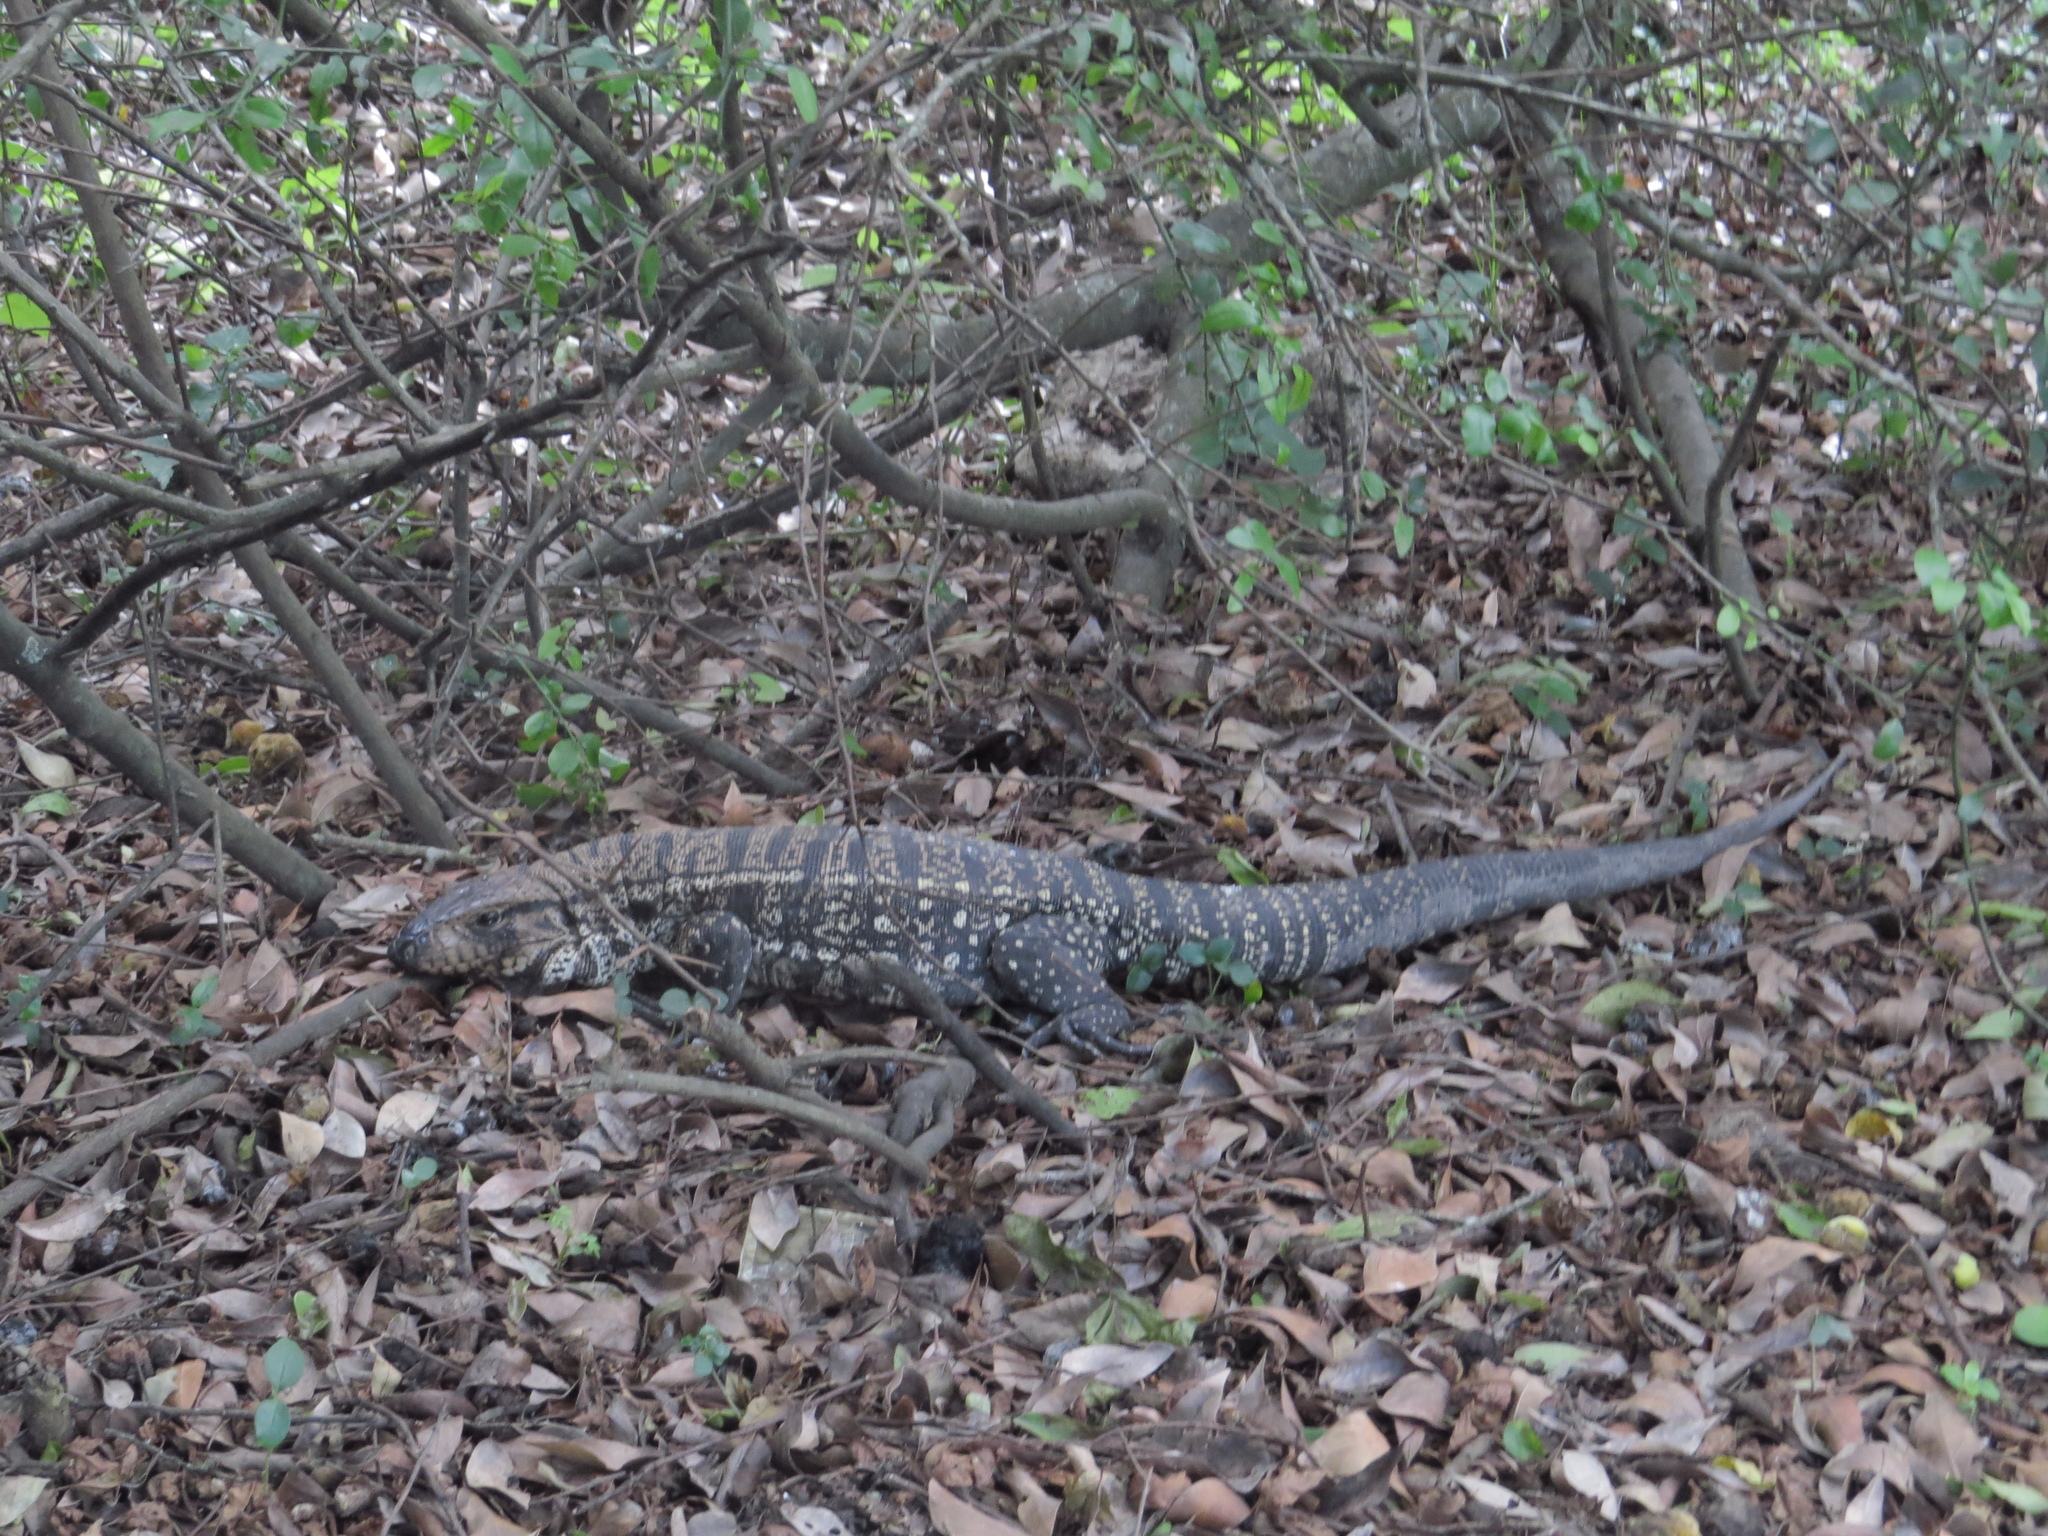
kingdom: Animalia
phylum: Chordata
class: Squamata
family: Teiidae
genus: Salvator
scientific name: Salvator merianae
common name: Argentine black and white tegu
